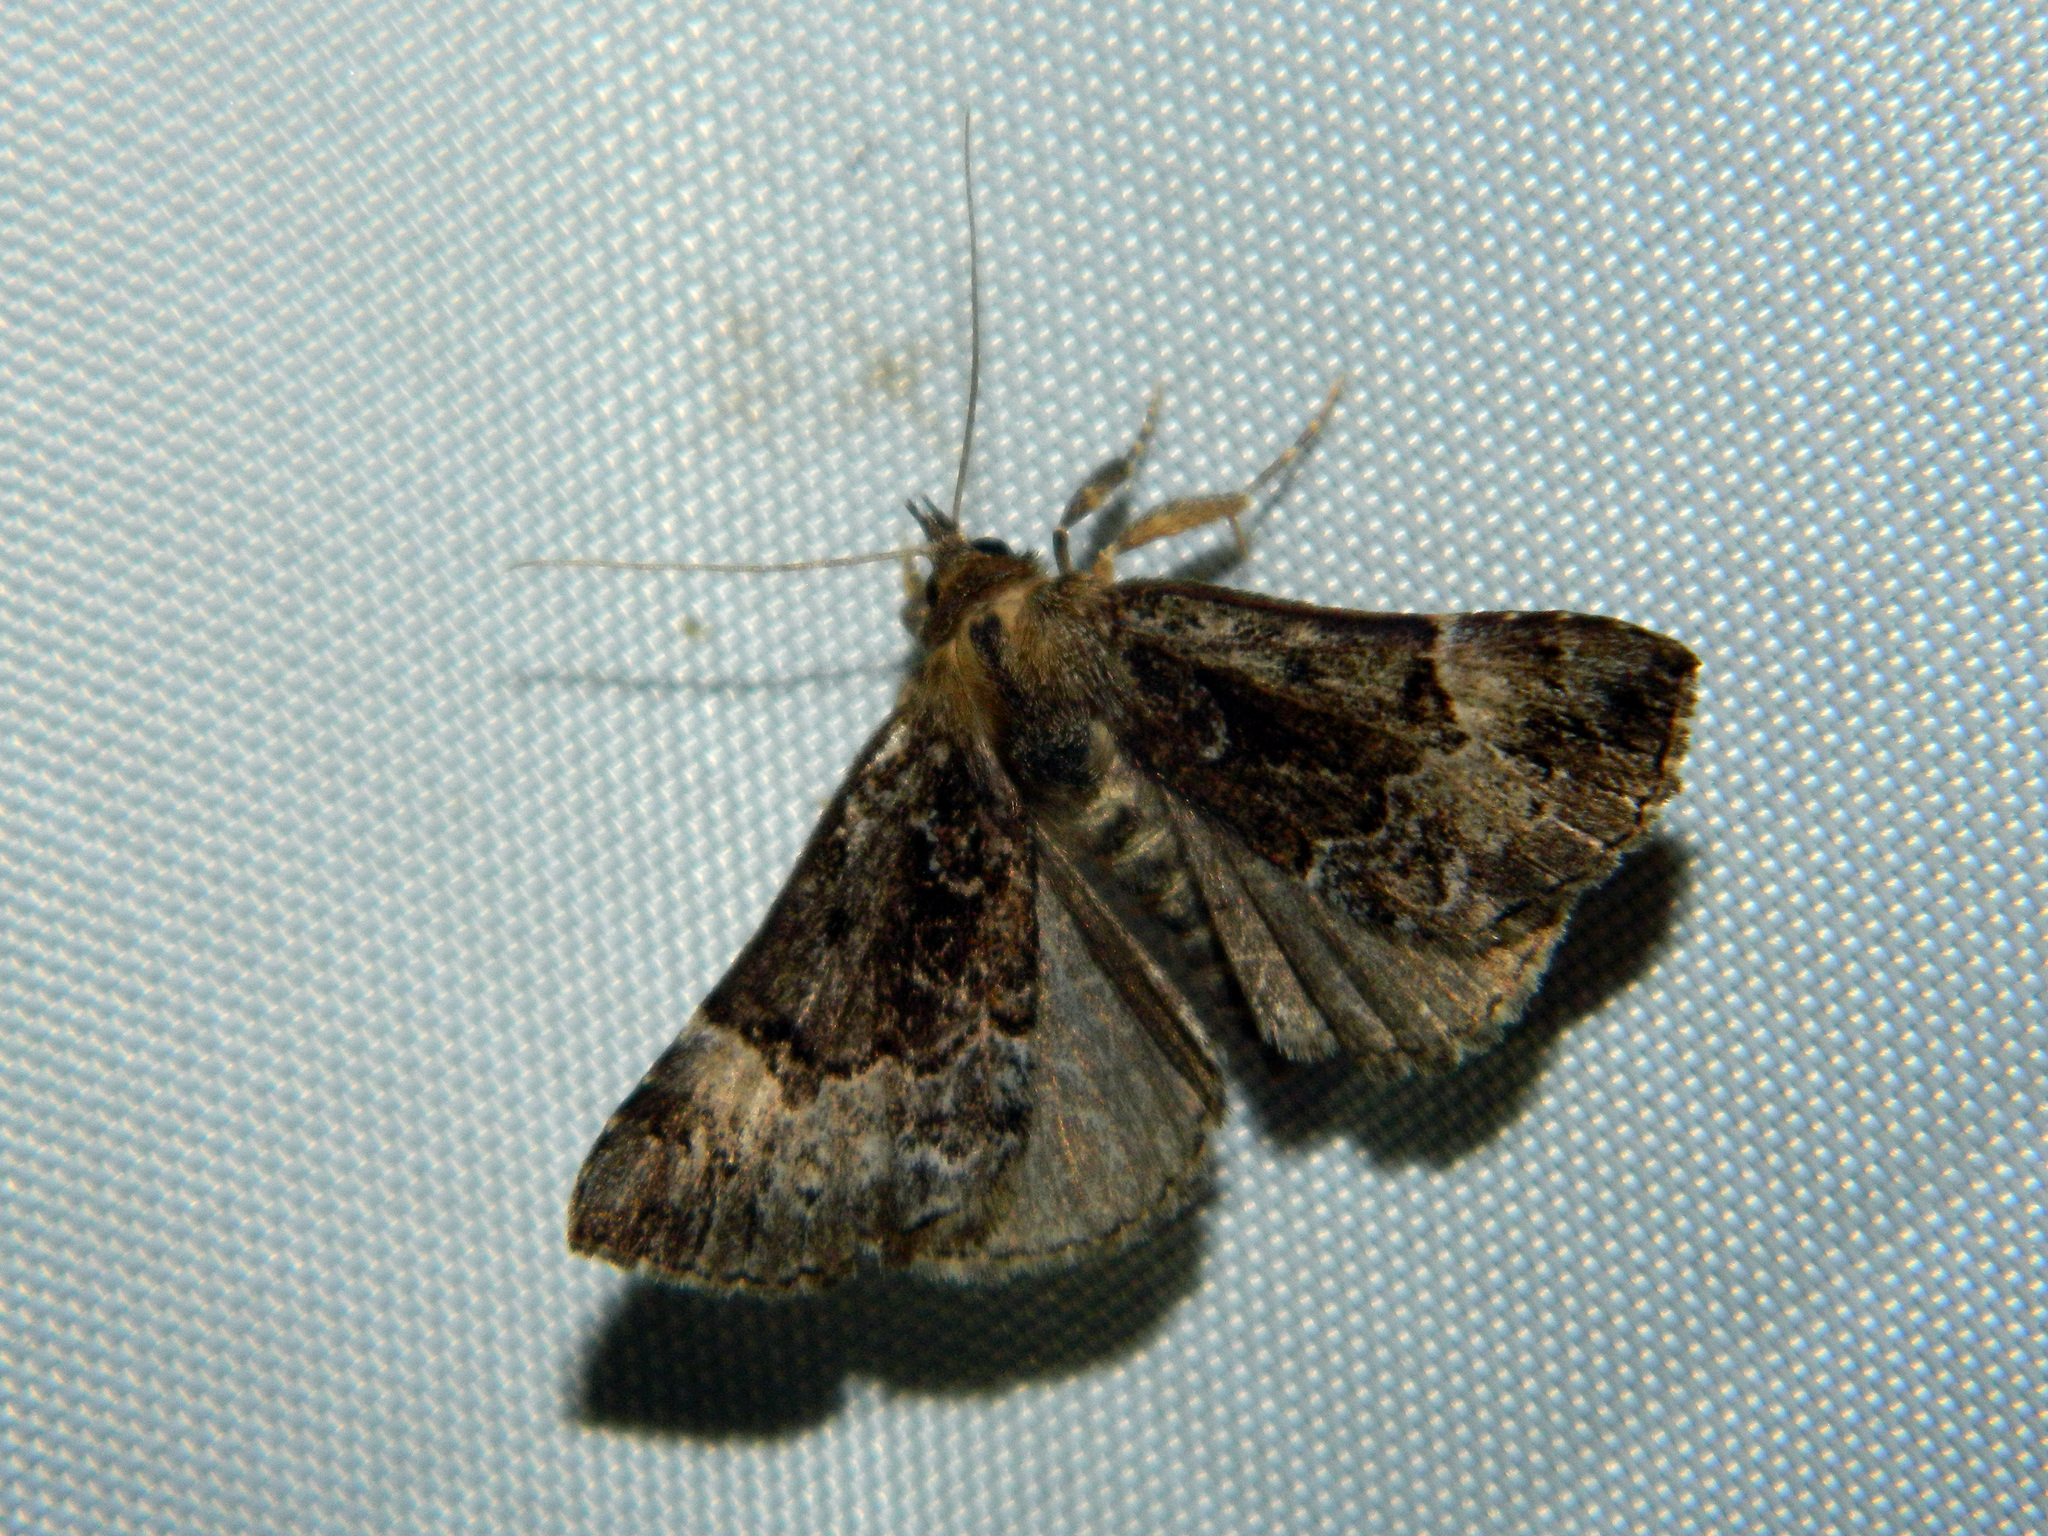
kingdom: Animalia
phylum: Arthropoda
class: Insecta
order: Lepidoptera
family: Erebidae
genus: Hypena
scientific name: Hypena palparia
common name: Mottled bomolocha moth
